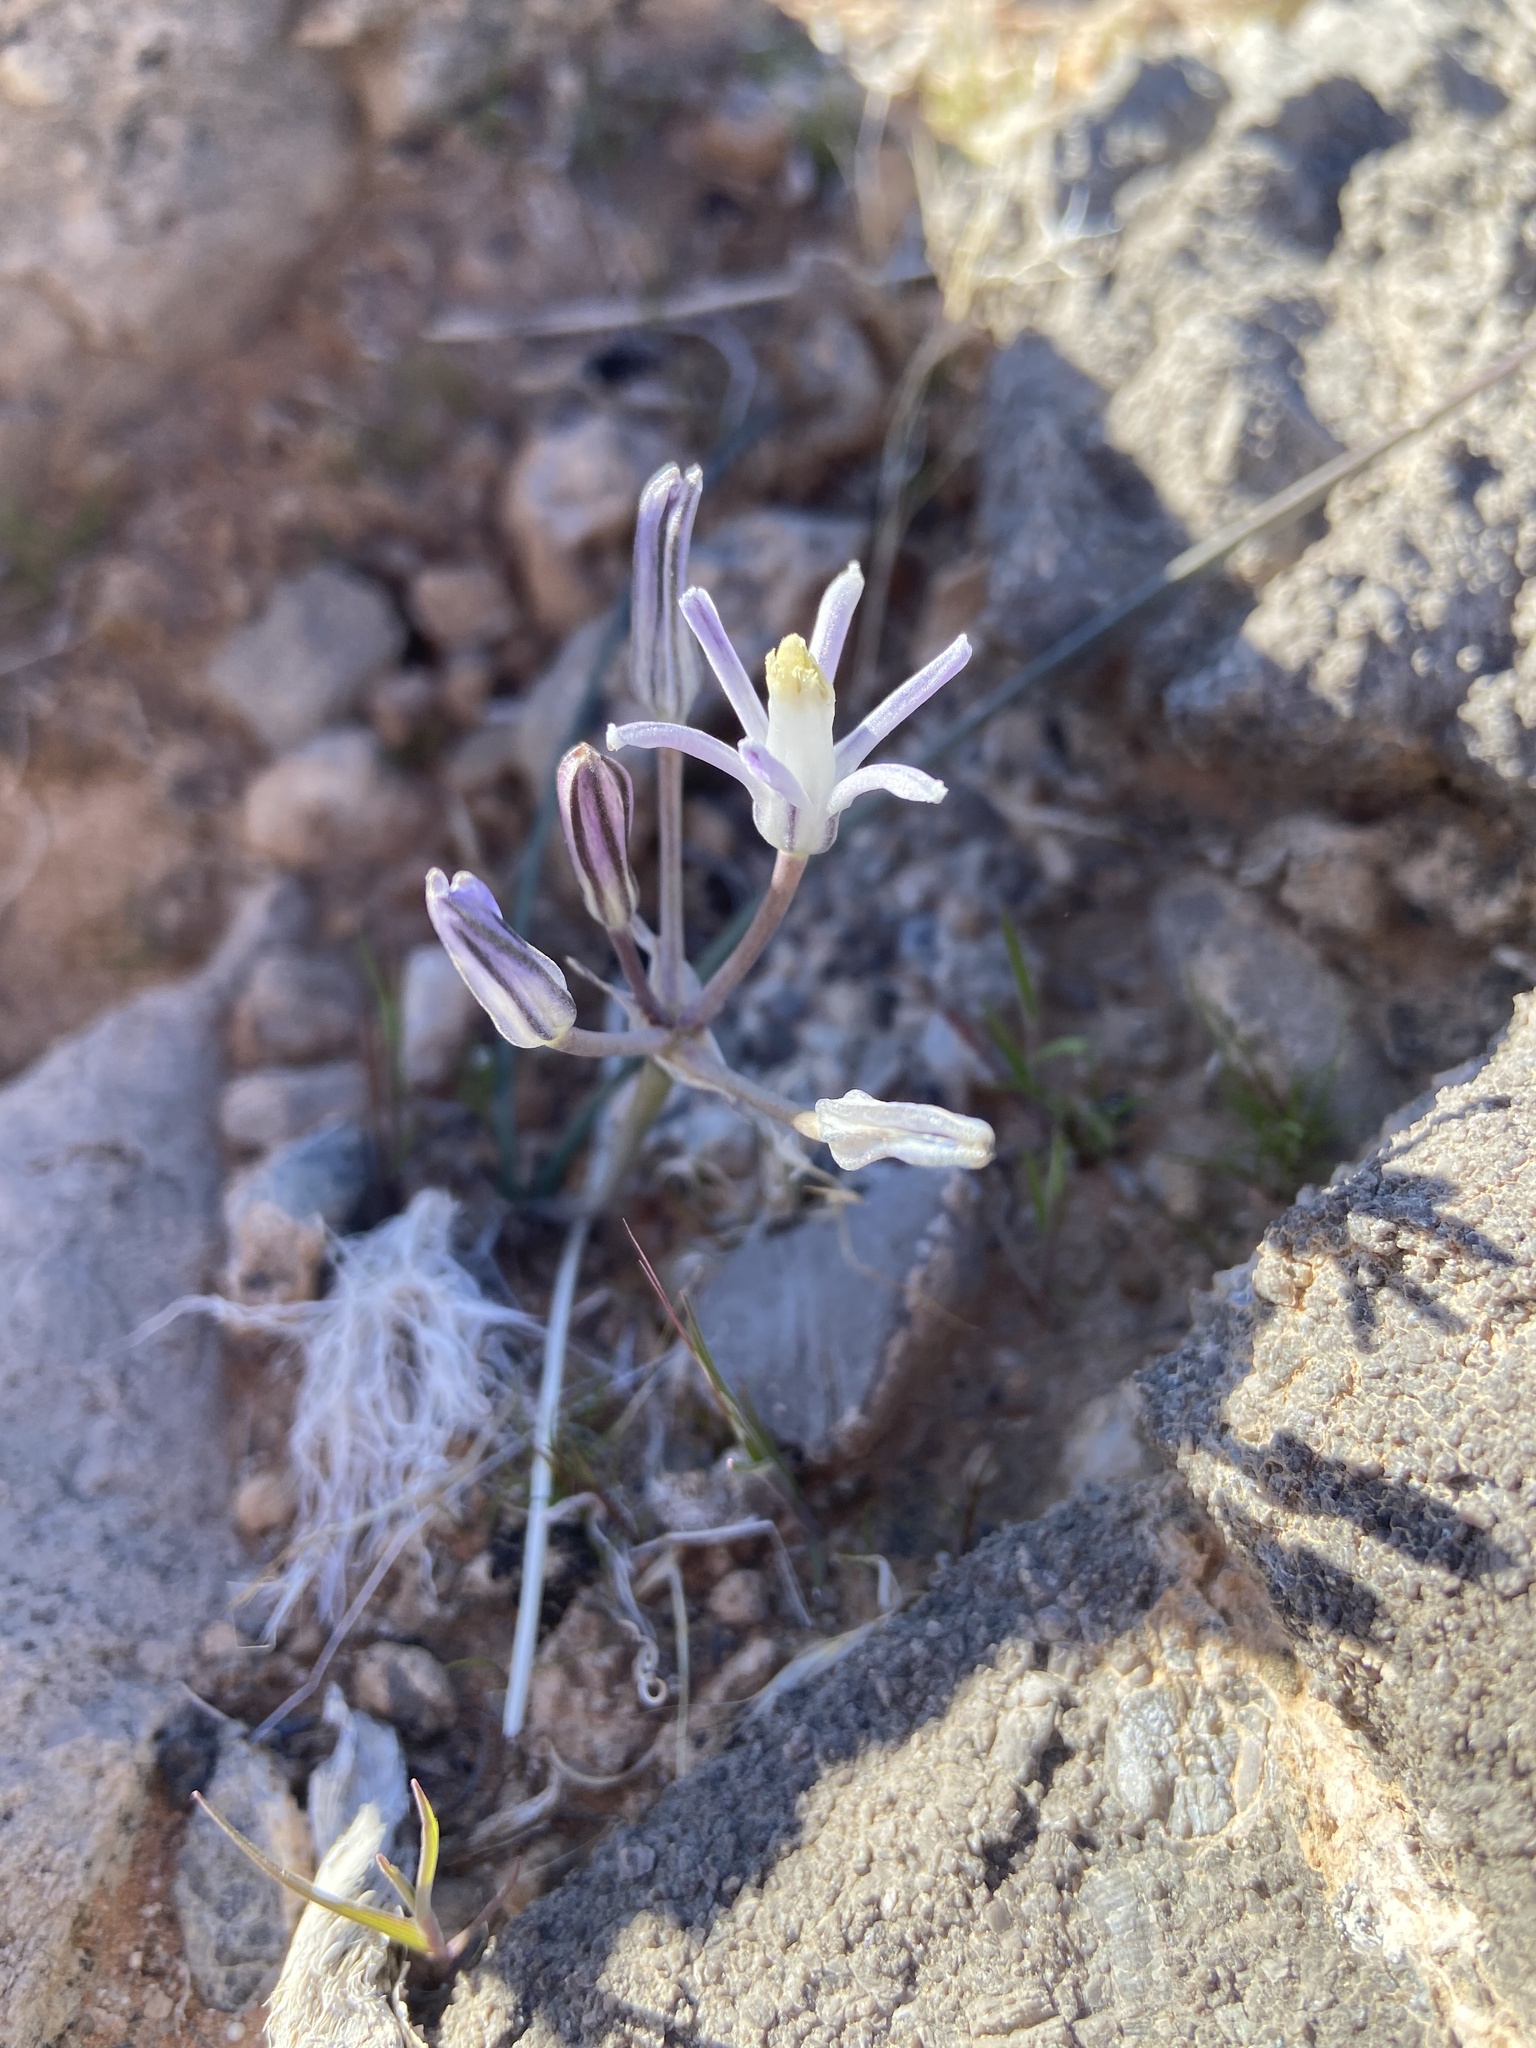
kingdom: Plantae
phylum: Tracheophyta
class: Liliopsida
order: Asparagales
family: Asparagaceae
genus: Androstephium
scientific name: Androstephium breviflorum
